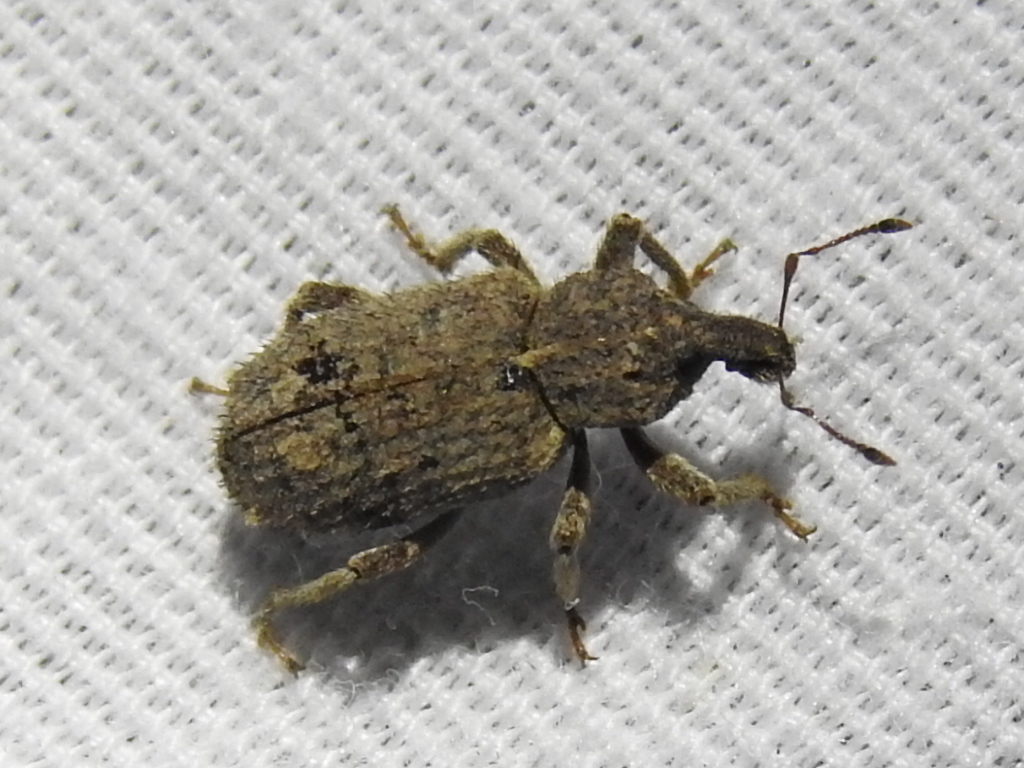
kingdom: Animalia
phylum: Arthropoda
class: Insecta
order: Coleoptera
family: Curculionidae
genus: Listroderes
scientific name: Listroderes costirostris
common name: Weevil
